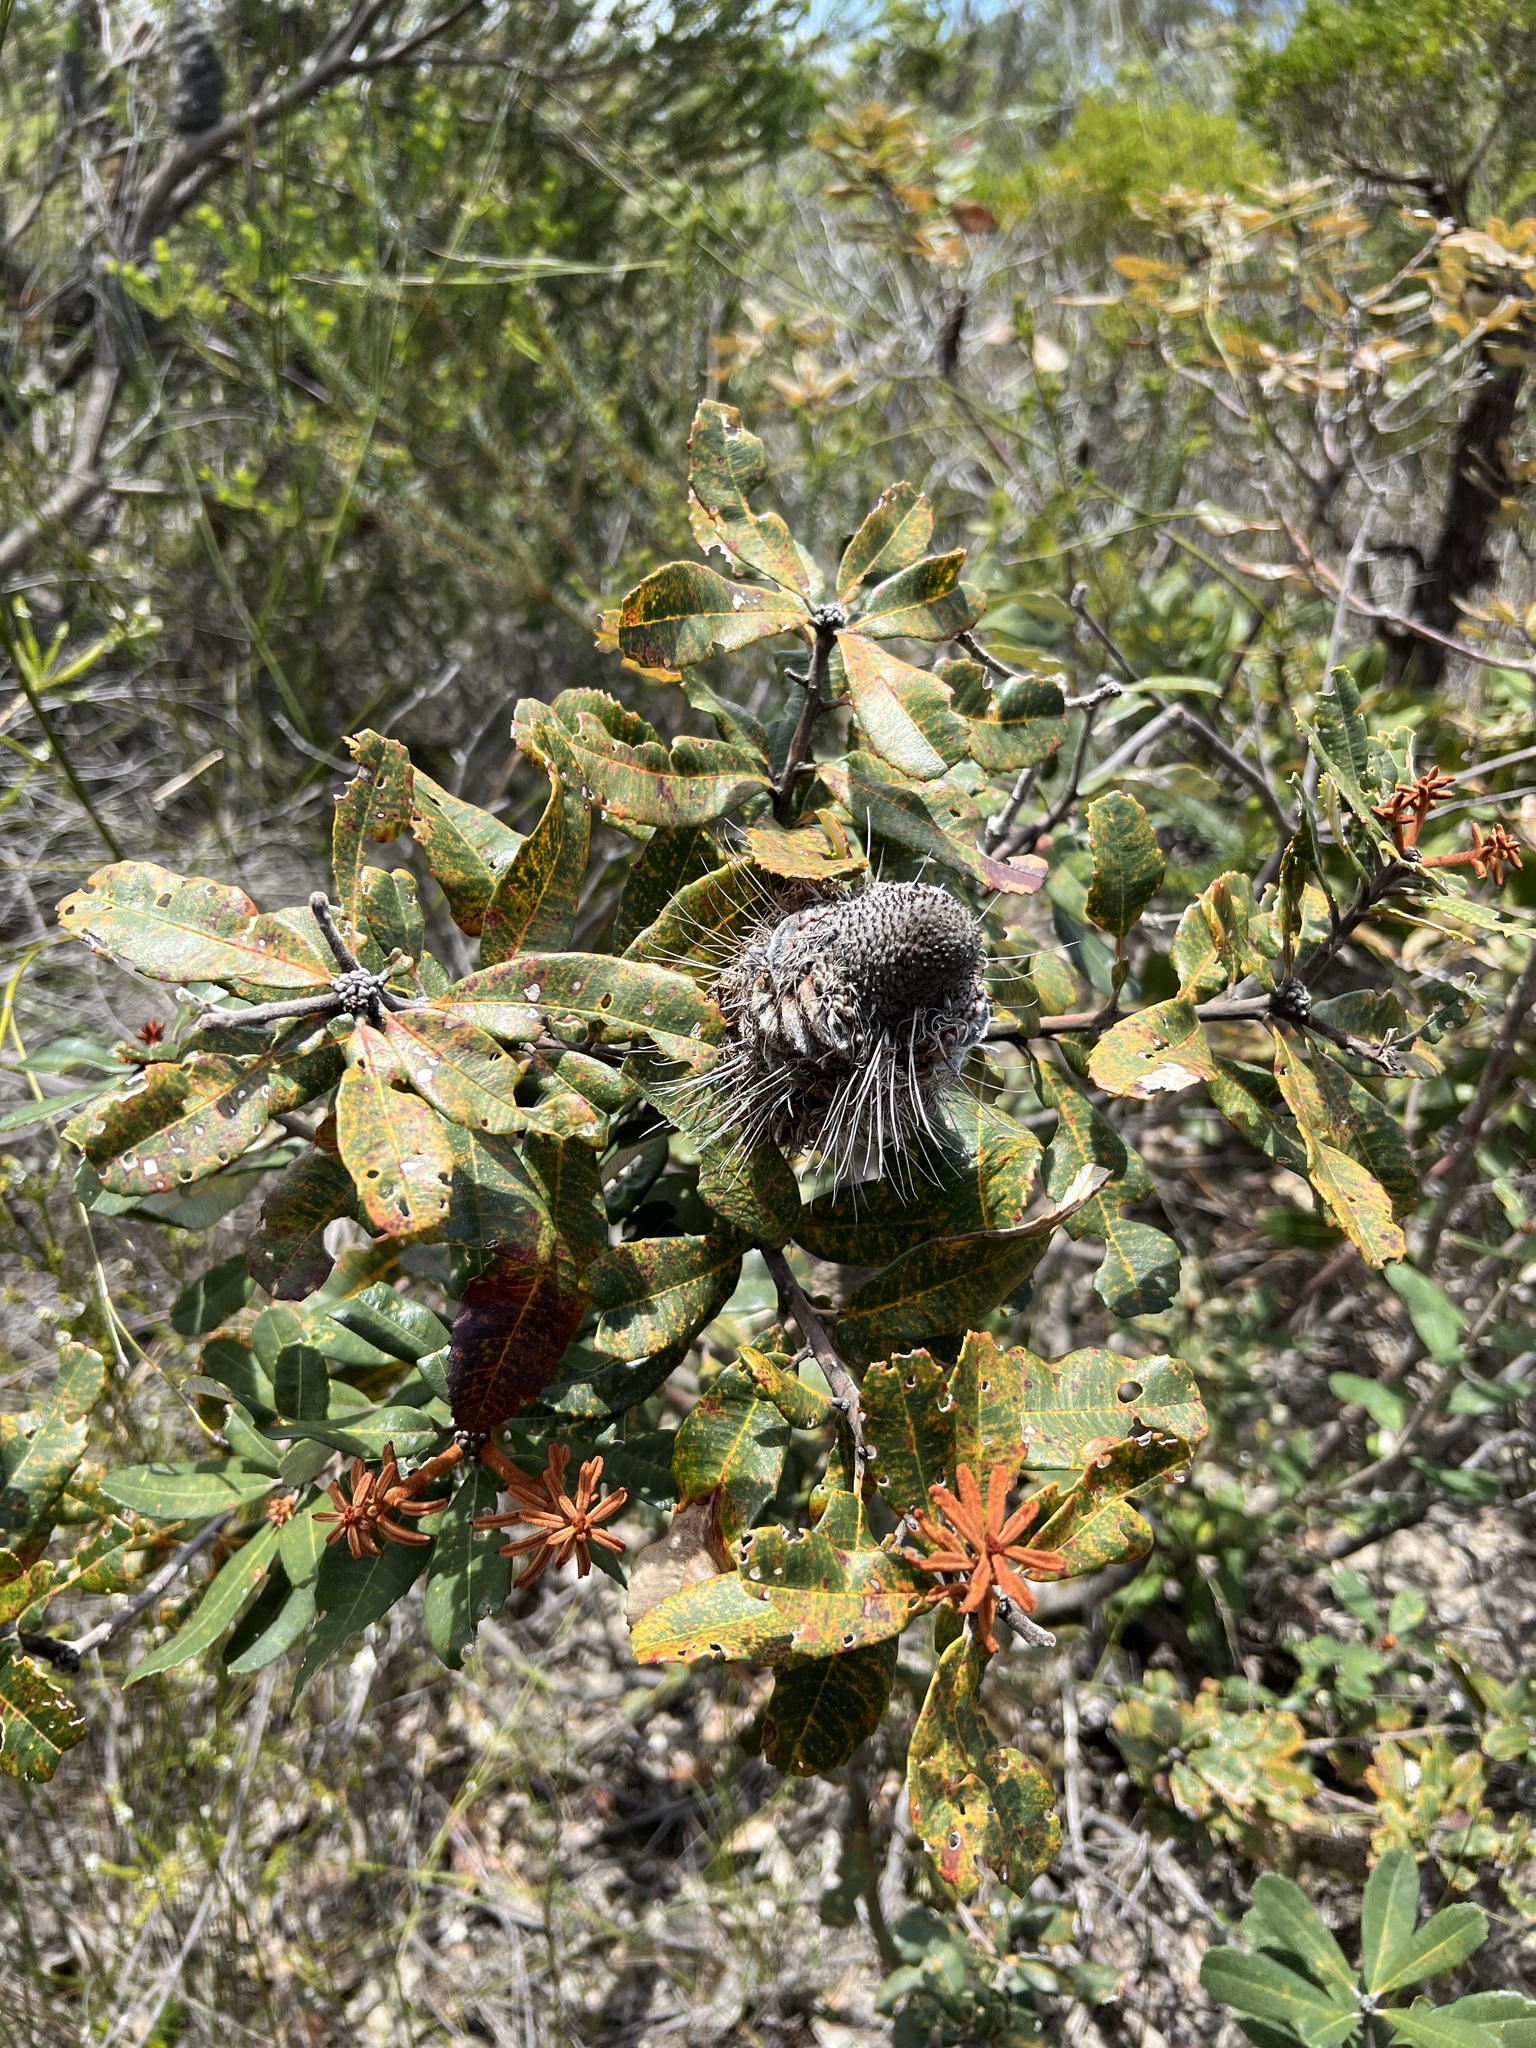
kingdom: Plantae
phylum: Tracheophyta
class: Magnoliopsida
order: Proteales
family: Proteaceae
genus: Banksia
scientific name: Banksia oblongifolia
